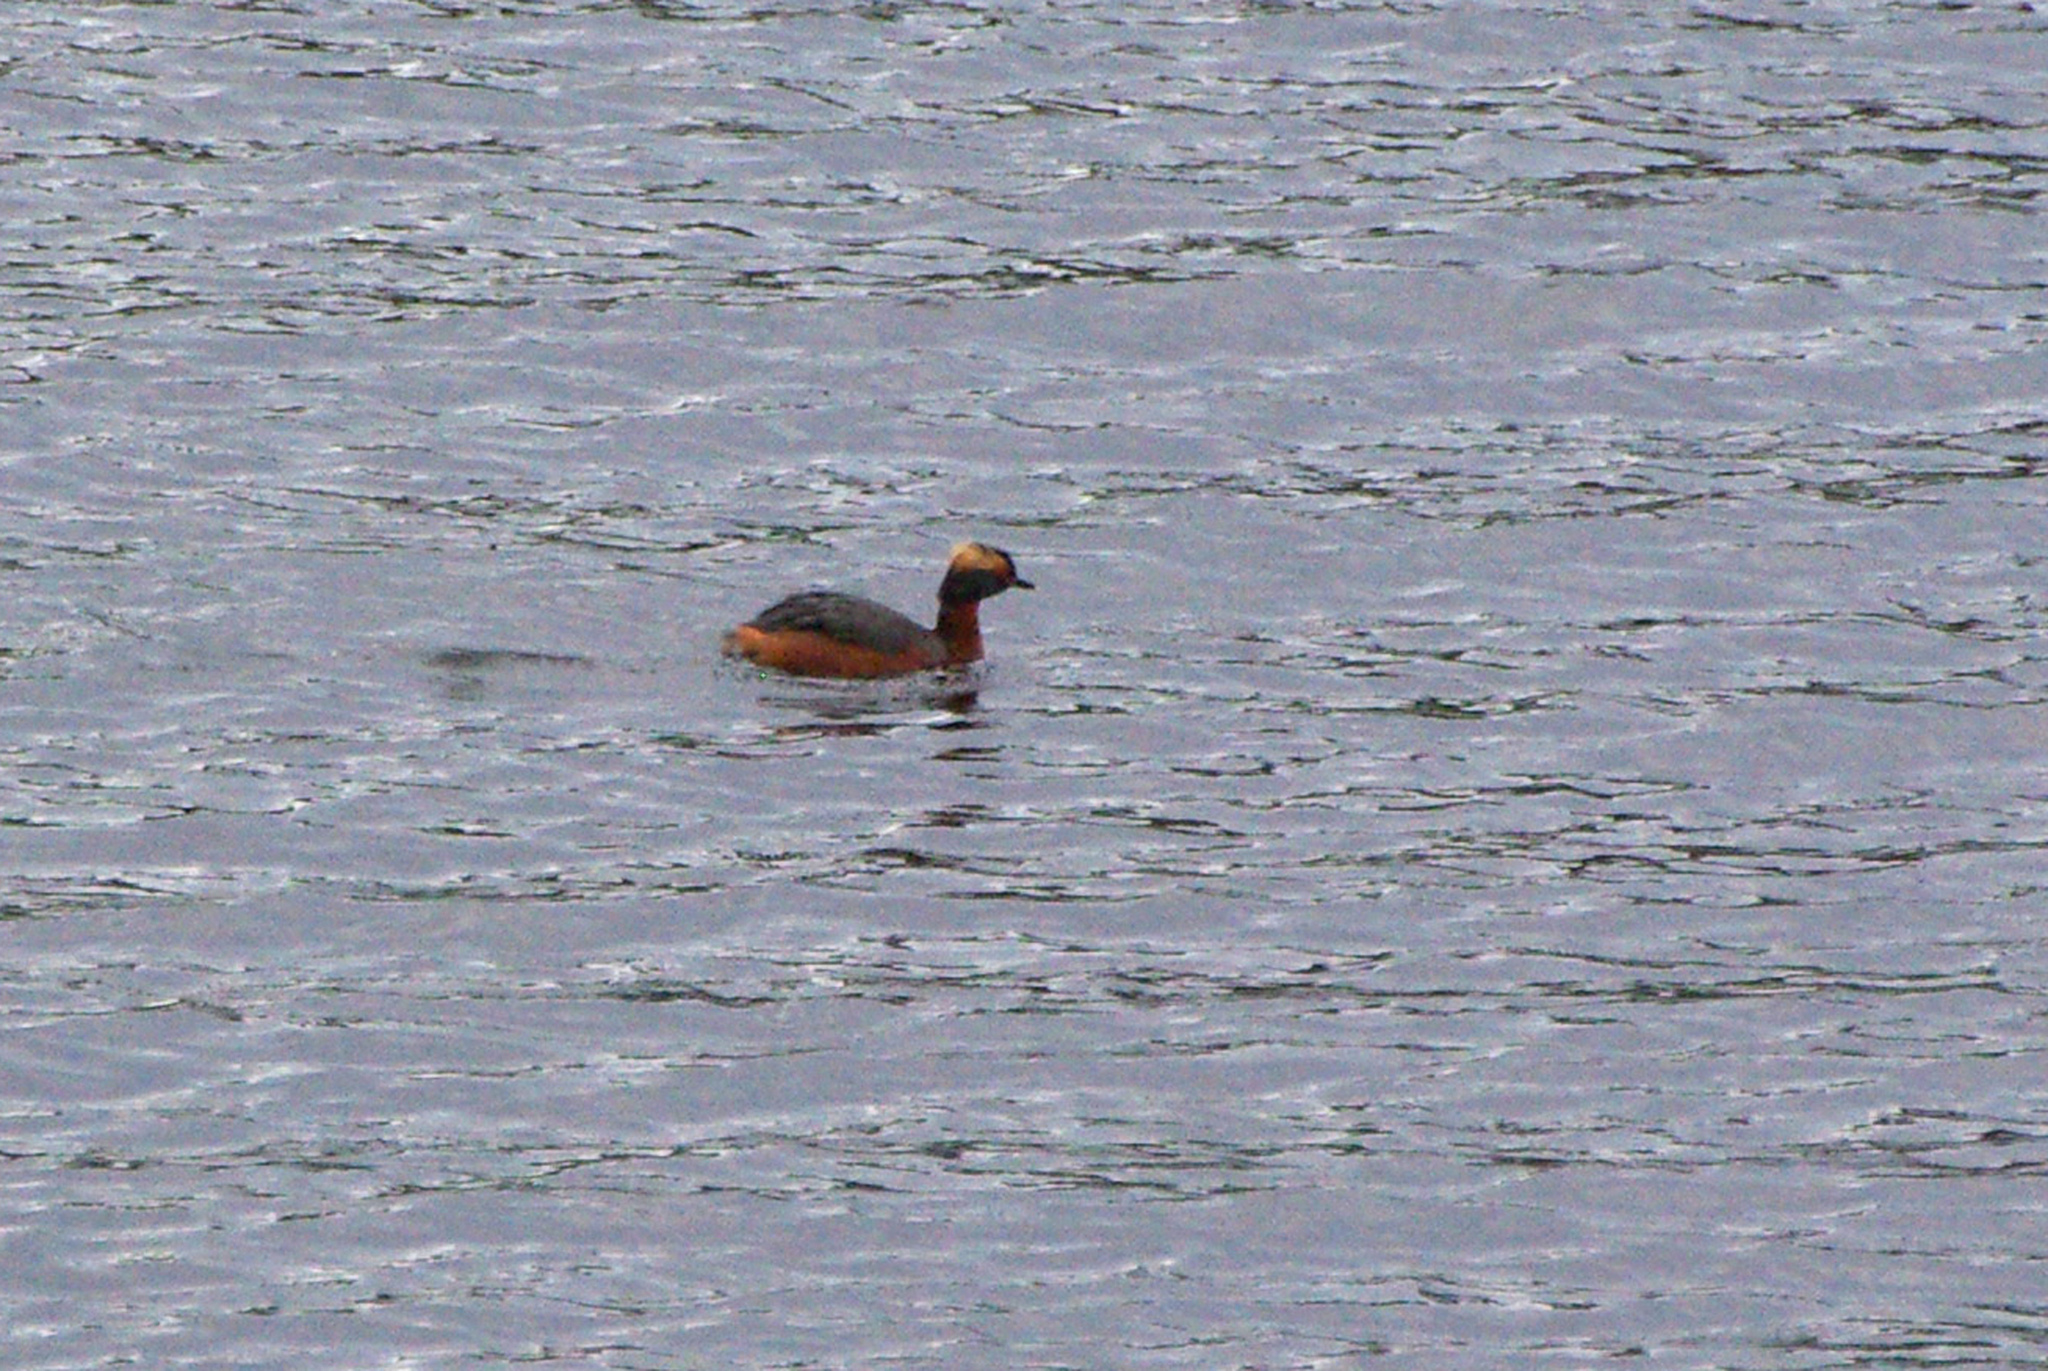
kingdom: Animalia
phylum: Chordata
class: Aves
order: Podicipediformes
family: Podicipedidae
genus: Podiceps
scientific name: Podiceps auritus
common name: Horned grebe
